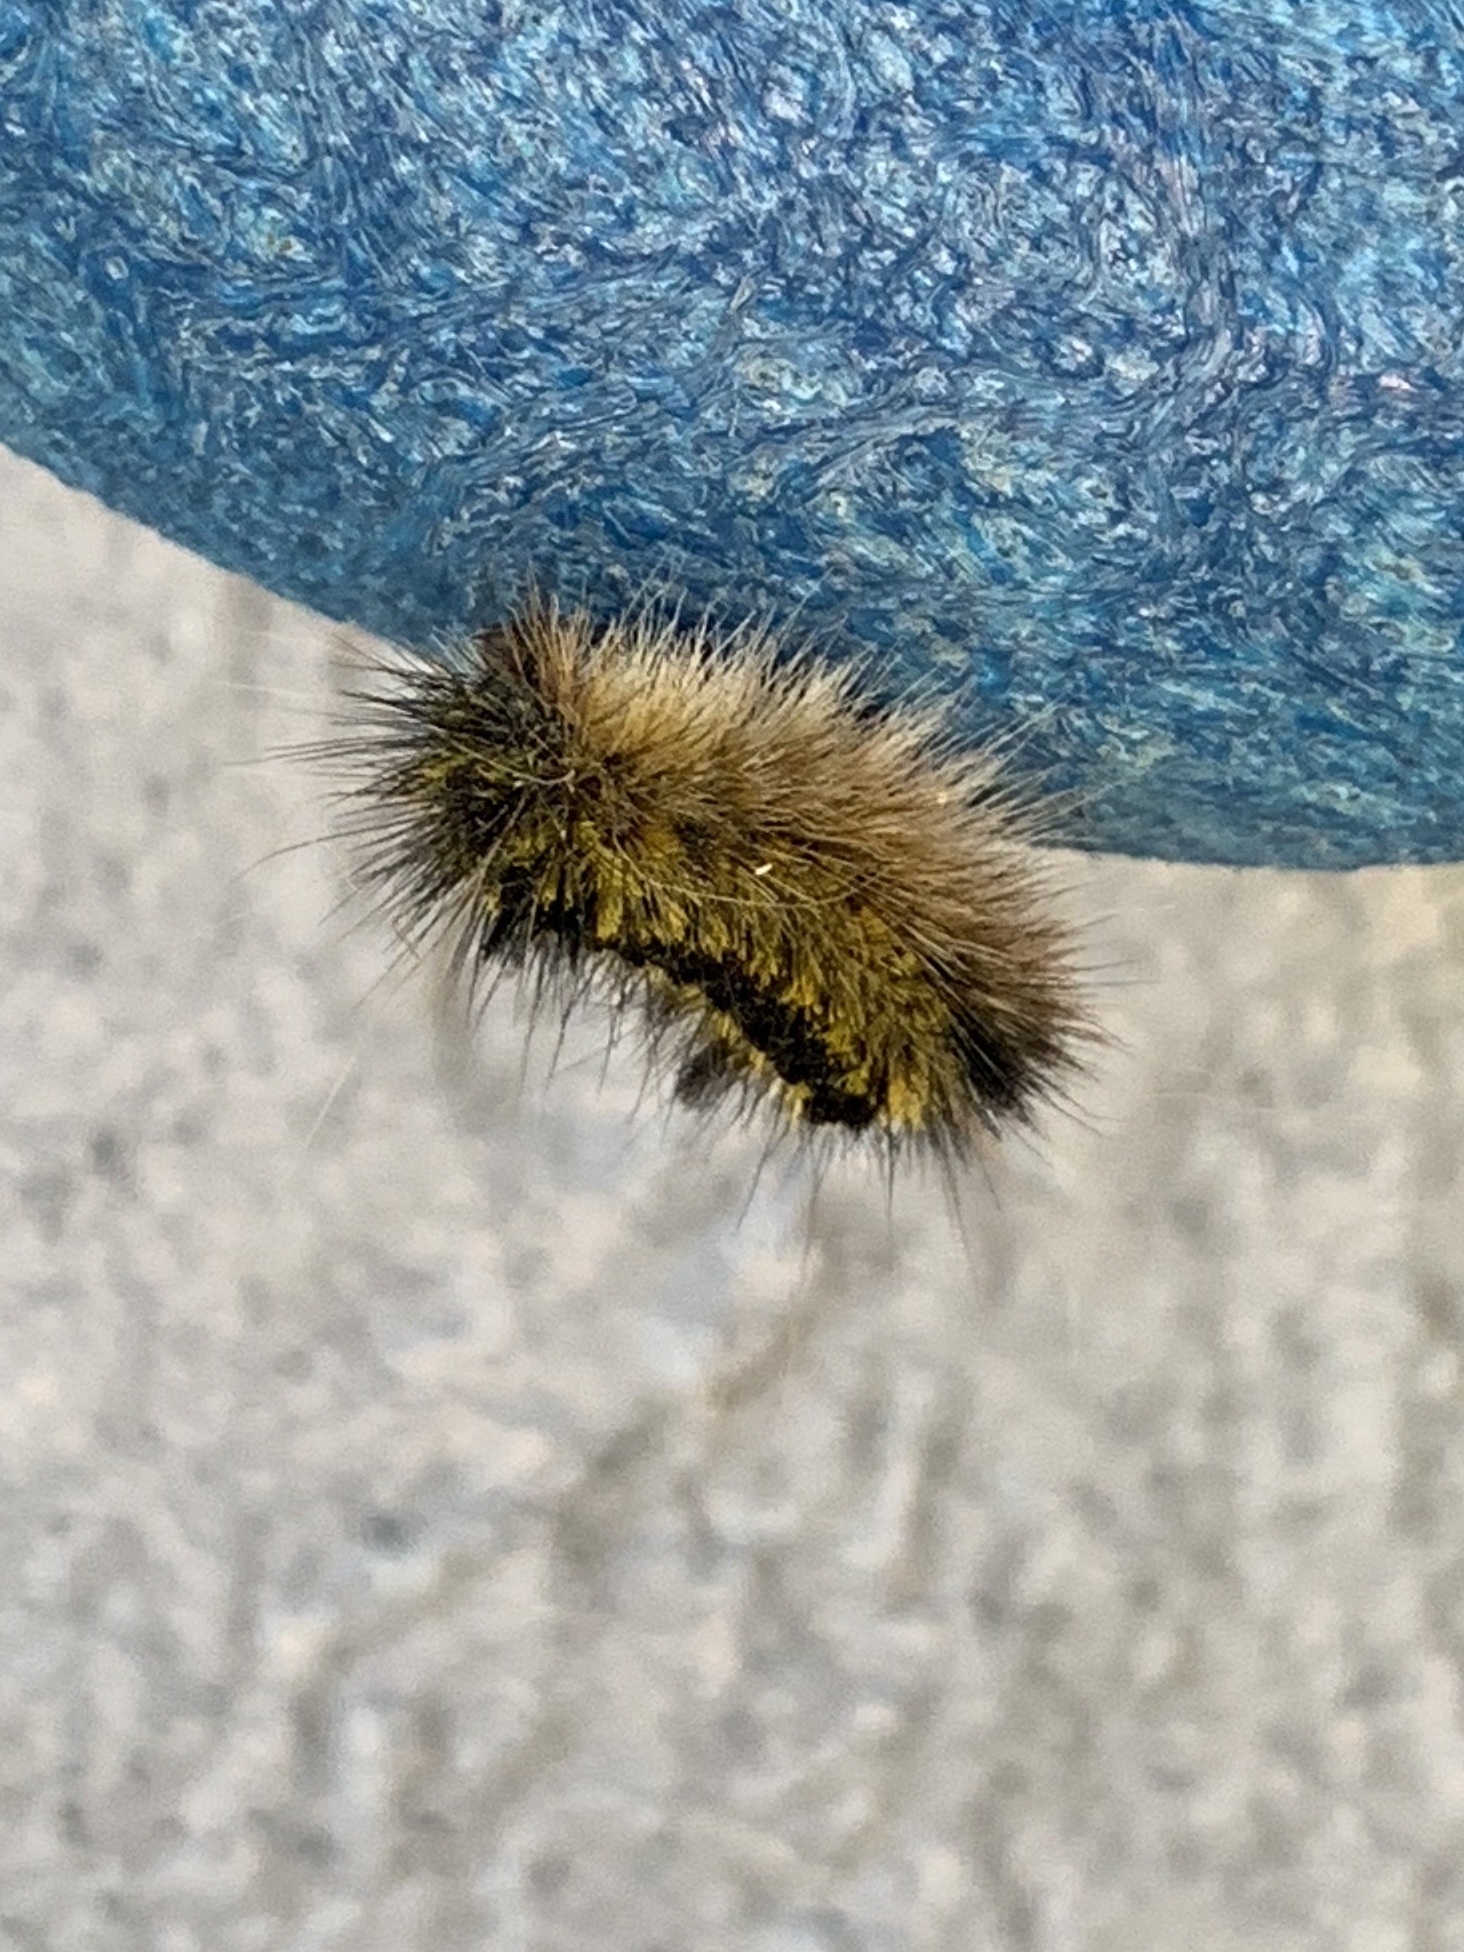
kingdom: Animalia
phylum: Arthropoda
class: Insecta
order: Lepidoptera
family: Erebidae
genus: Lophocampa
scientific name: Lophocampa argentata
